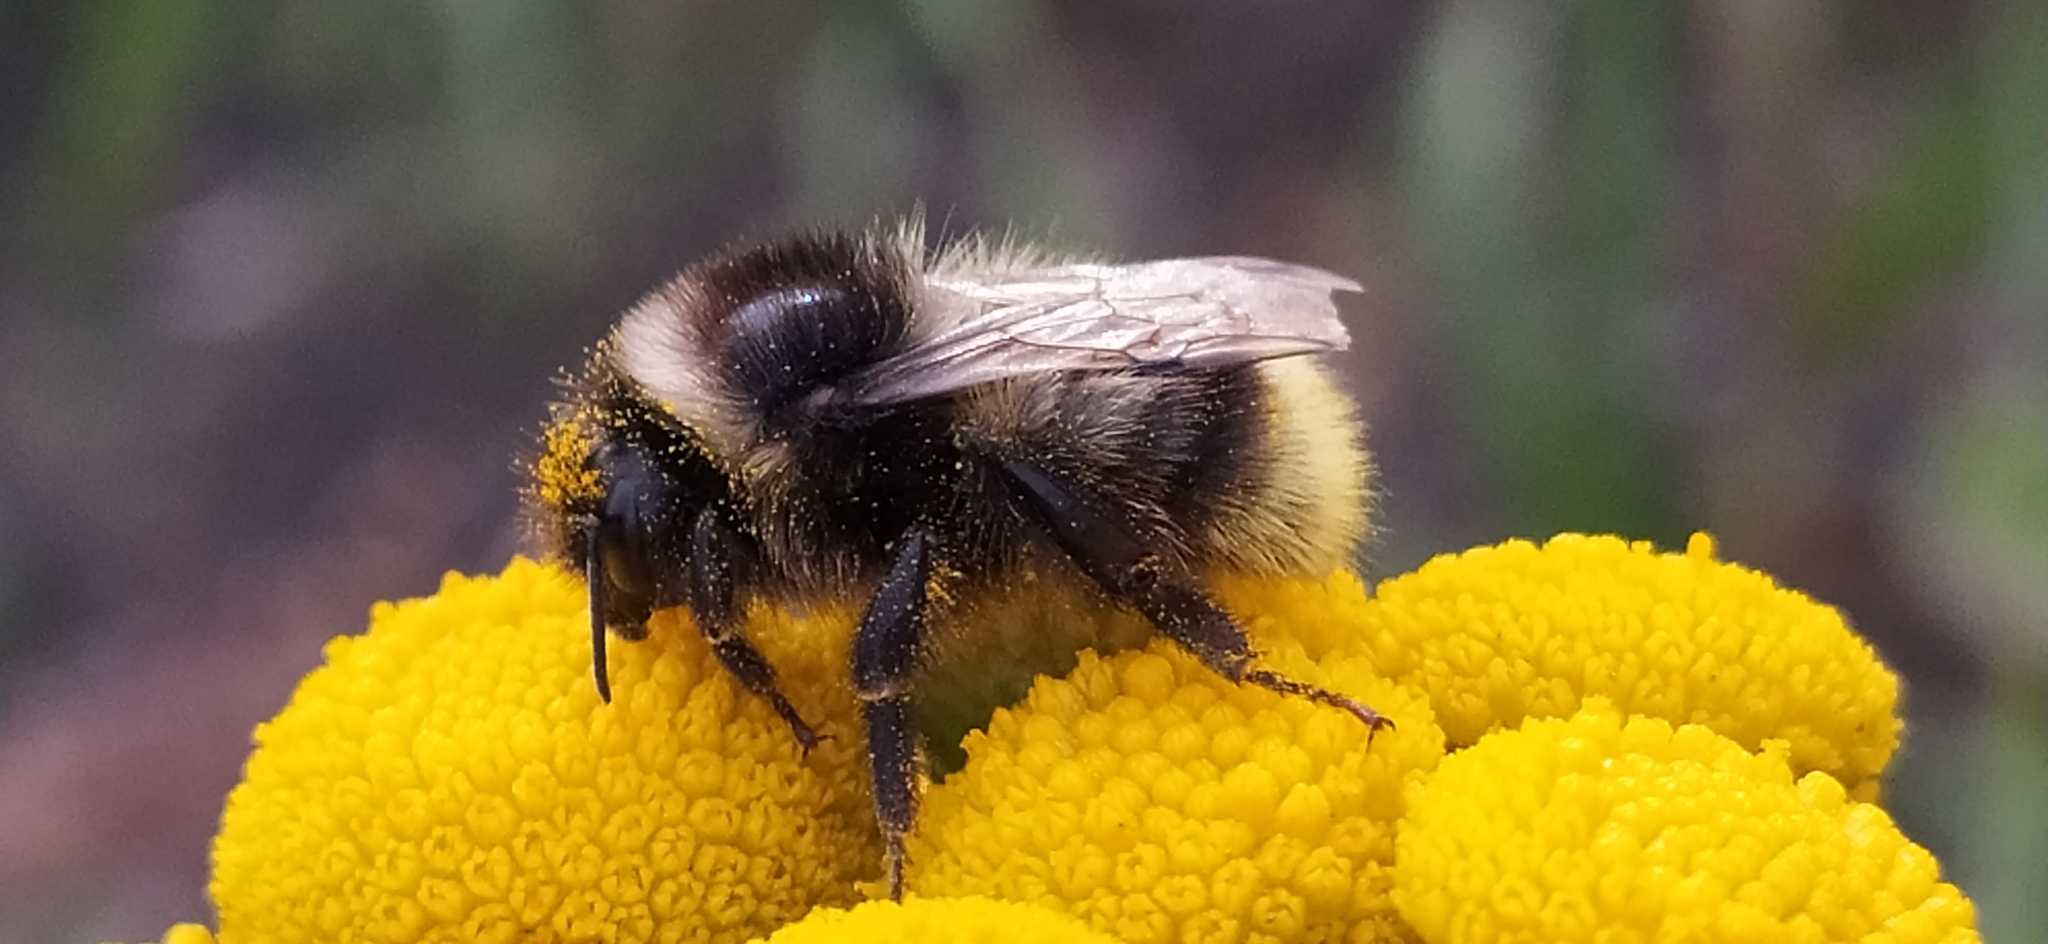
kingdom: Animalia
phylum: Arthropoda
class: Insecta
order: Hymenoptera
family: Apidae
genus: Bombus
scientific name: Bombus sichelii
